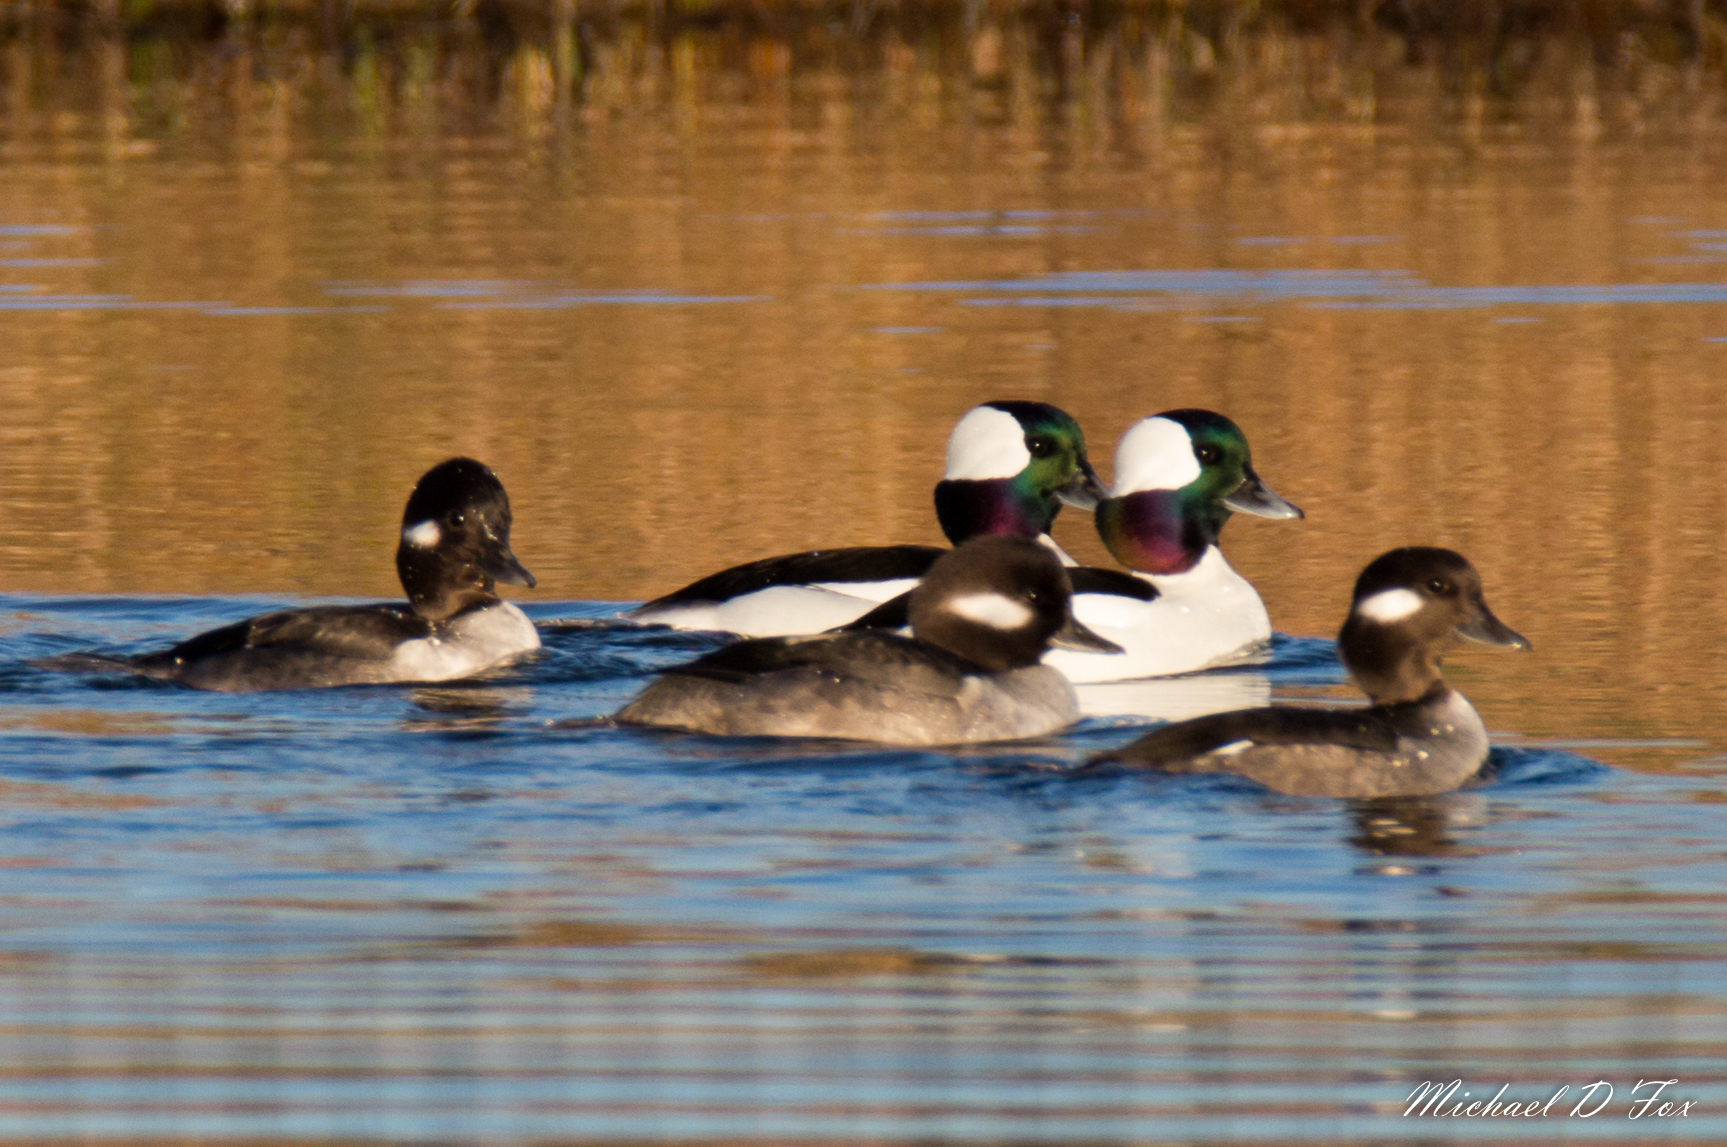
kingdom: Animalia
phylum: Chordata
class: Aves
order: Anseriformes
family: Anatidae
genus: Bucephala
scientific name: Bucephala albeola
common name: Bufflehead
